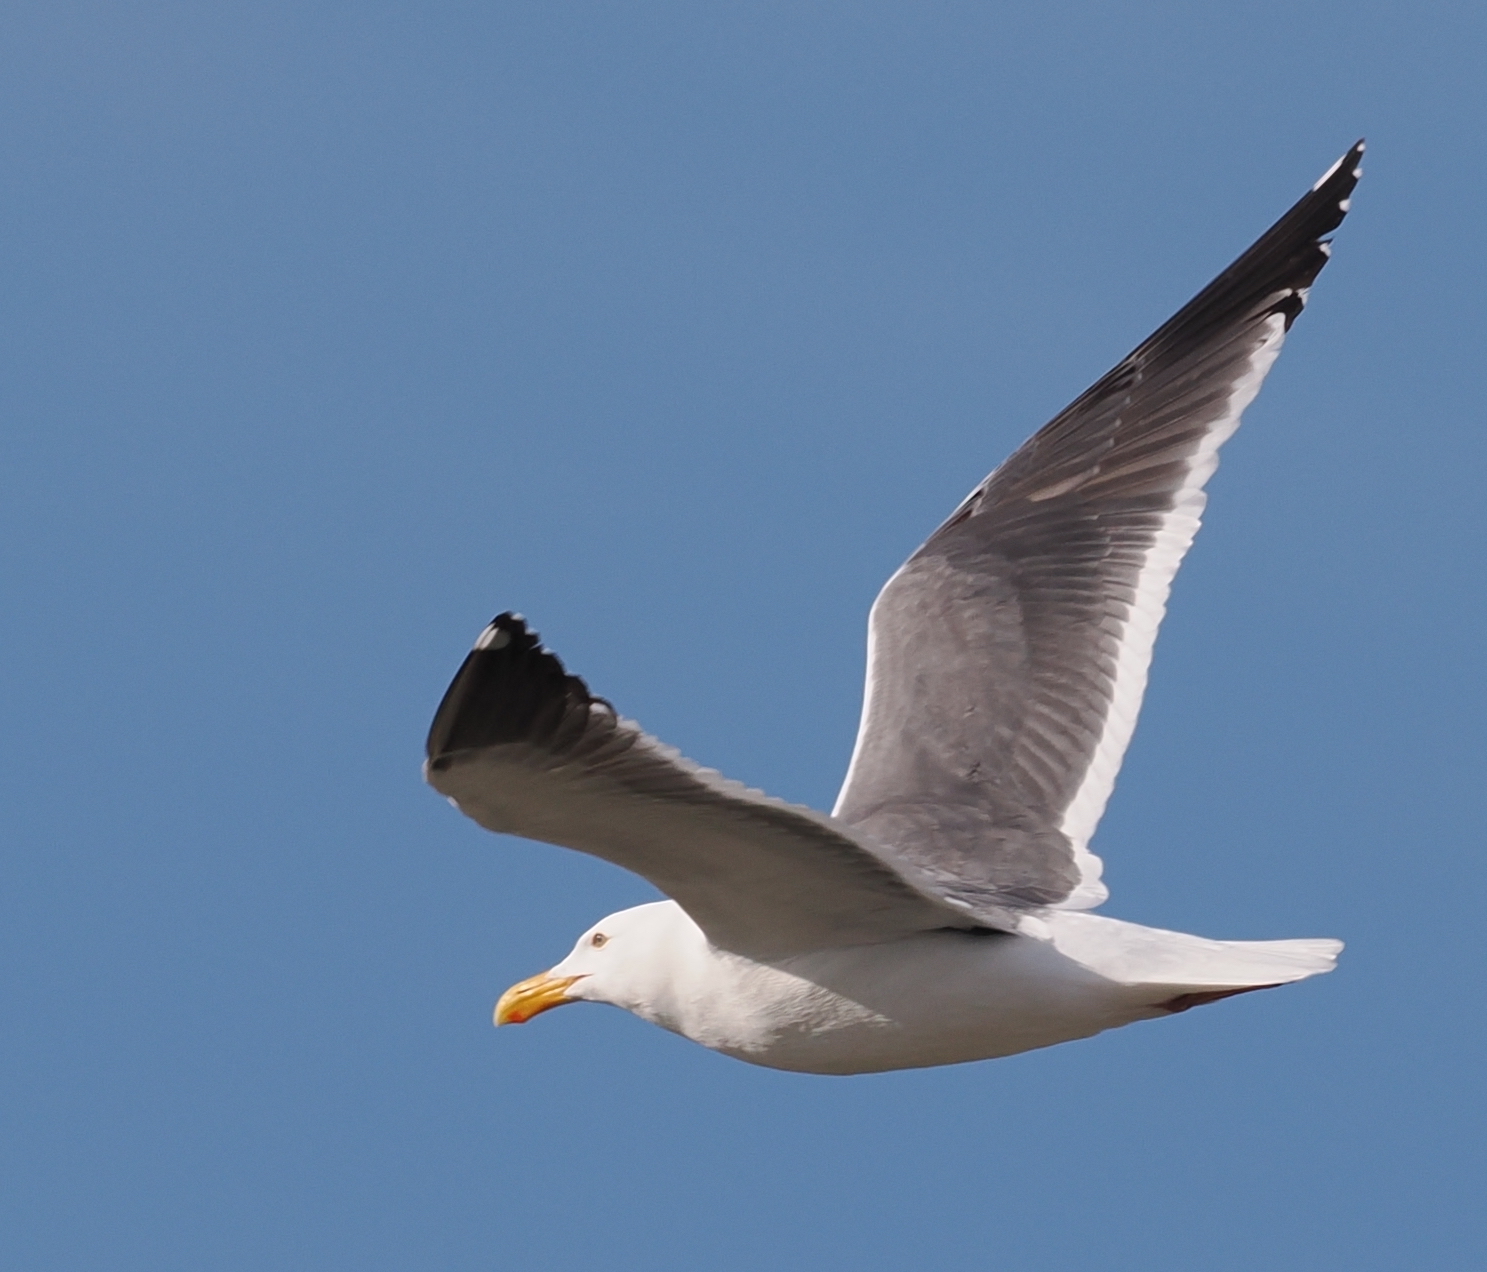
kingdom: Animalia
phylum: Chordata
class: Aves
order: Charadriiformes
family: Laridae
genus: Larus
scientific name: Larus occidentalis
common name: Western gull
